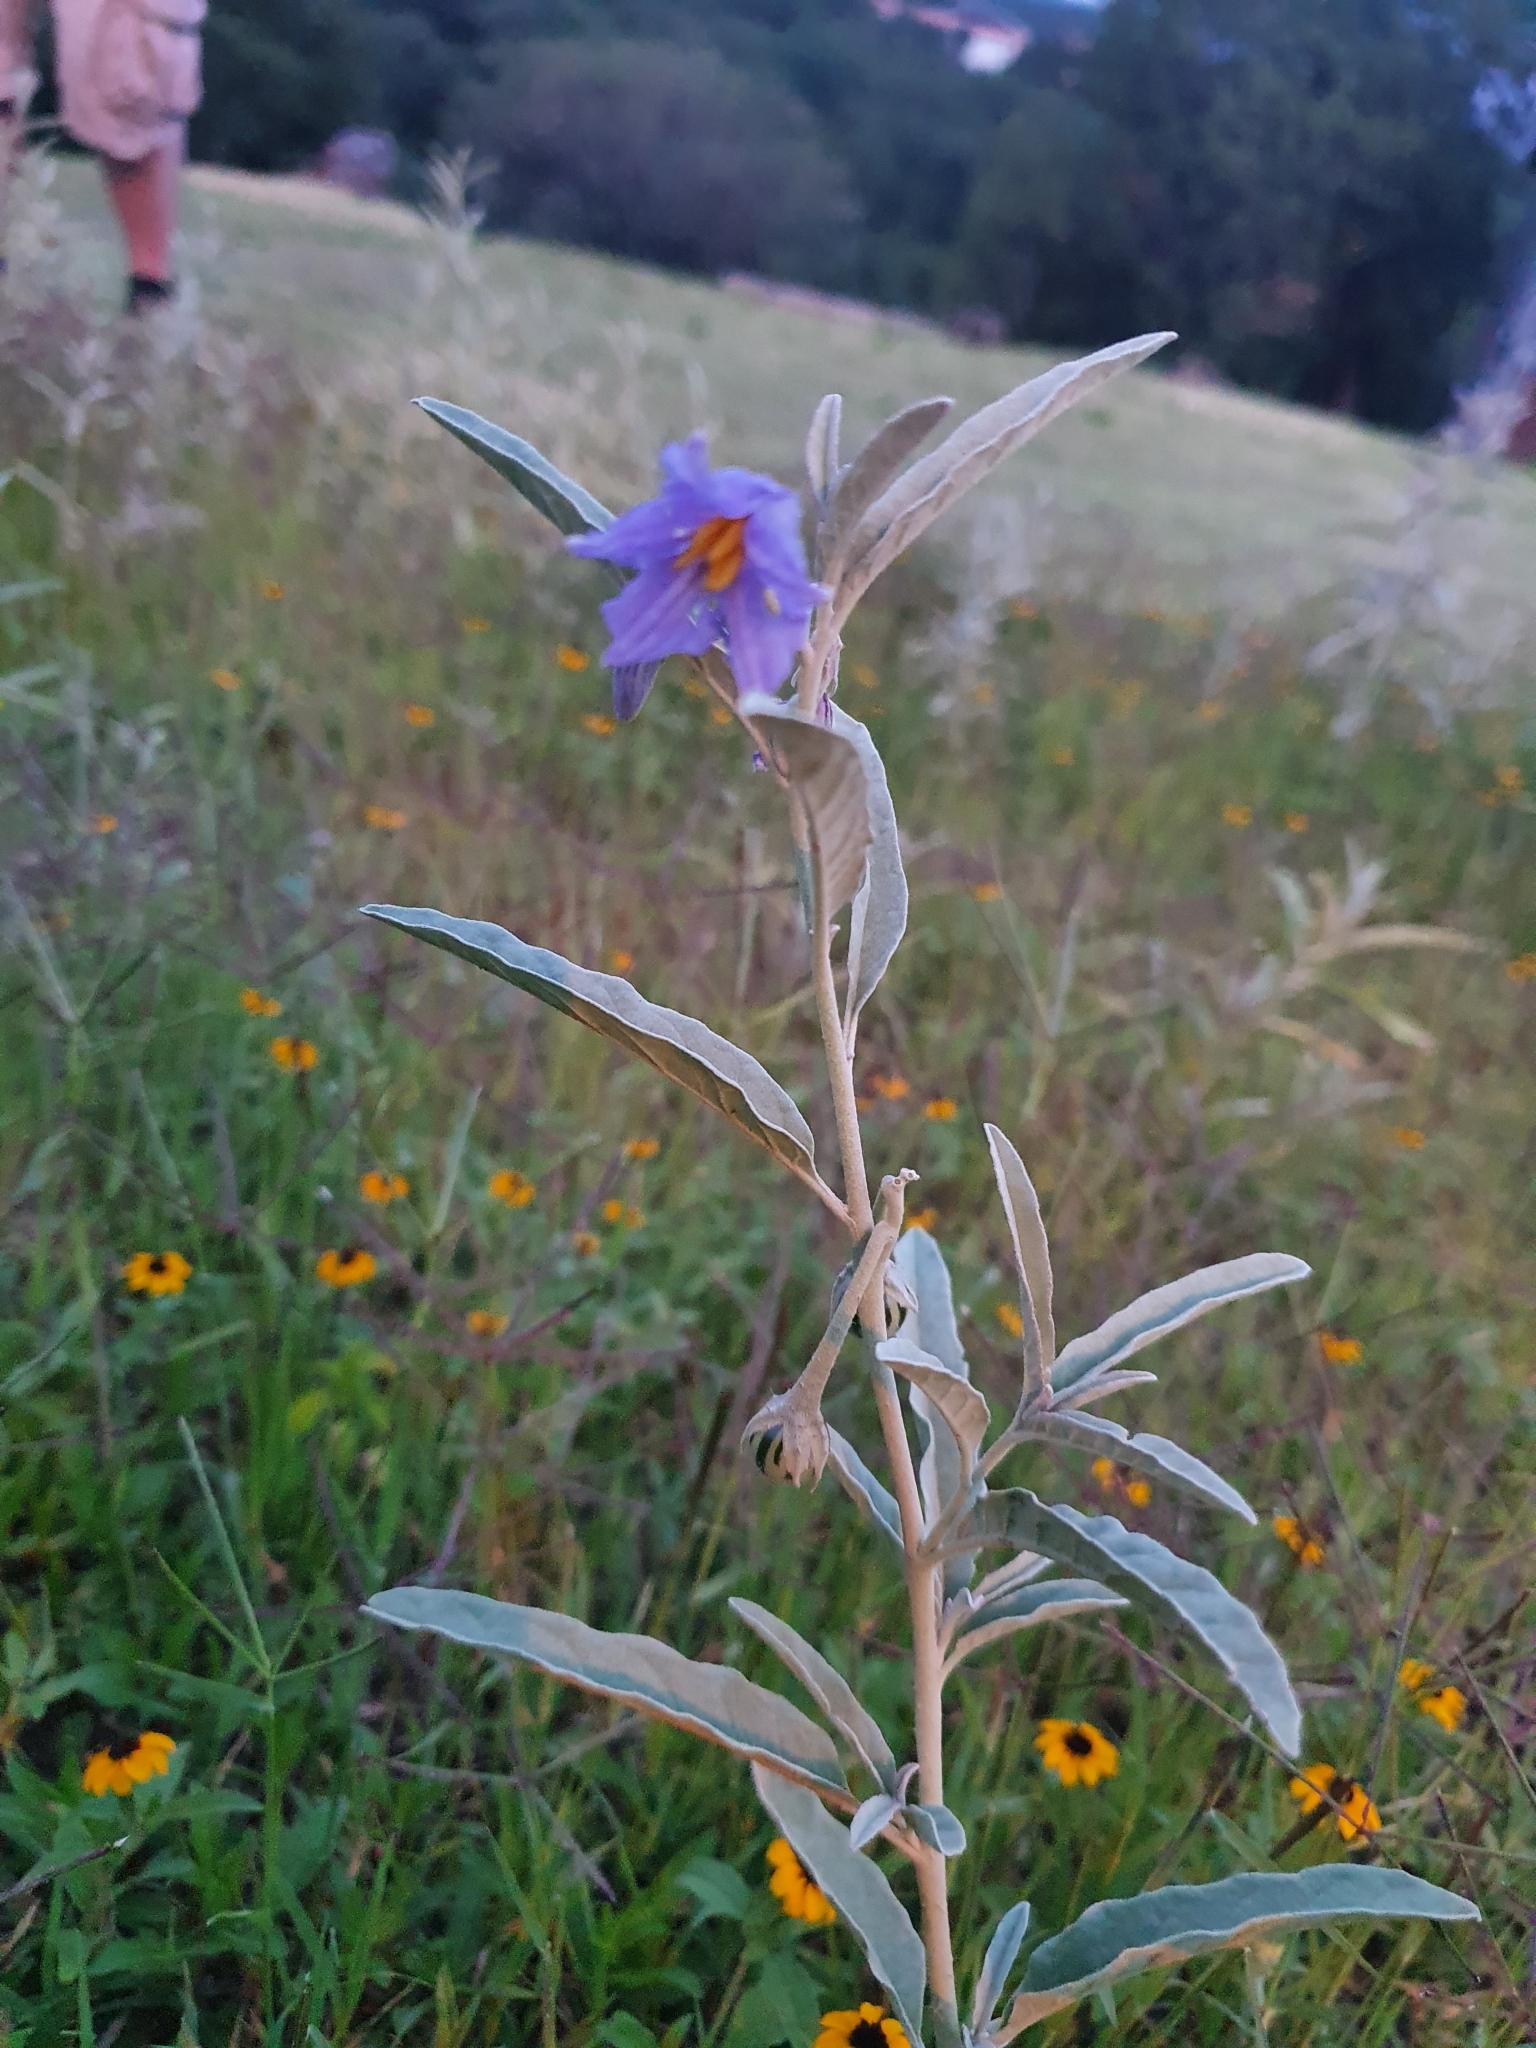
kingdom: Plantae
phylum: Tracheophyta
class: Magnoliopsida
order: Solanales
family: Solanaceae
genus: Solanum
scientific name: Solanum elaeagnifolium
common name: Silverleaf nightshade
